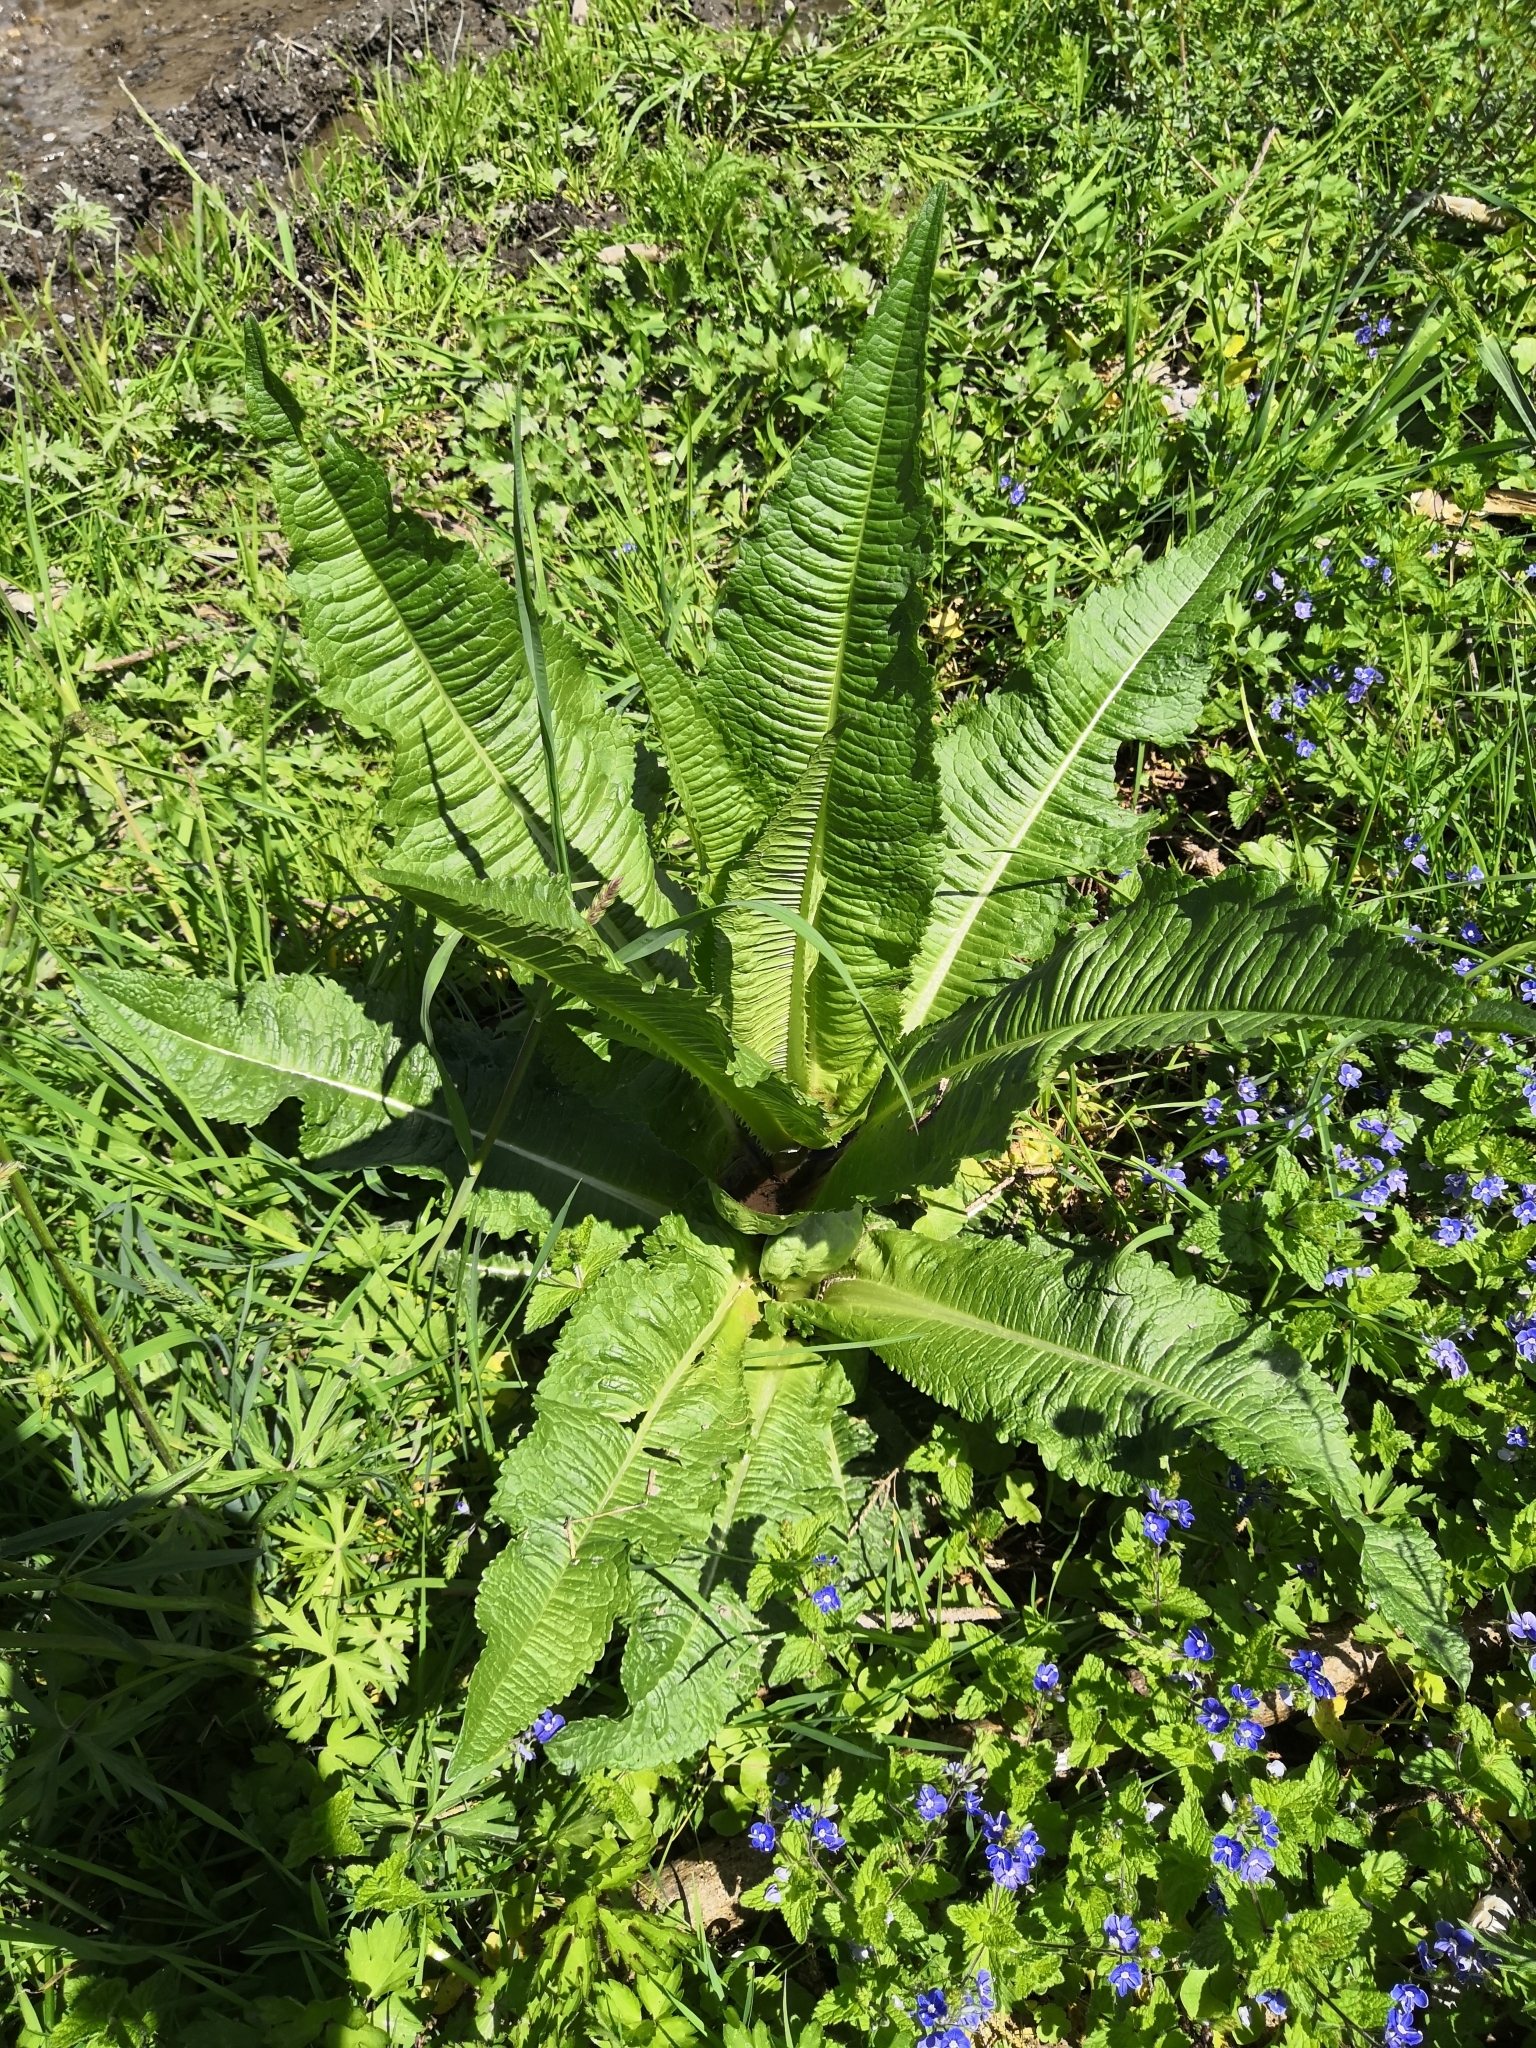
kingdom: Plantae
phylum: Tracheophyta
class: Magnoliopsida
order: Dipsacales
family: Caprifoliaceae
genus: Dipsacus
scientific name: Dipsacus fullonum
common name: Teasel
